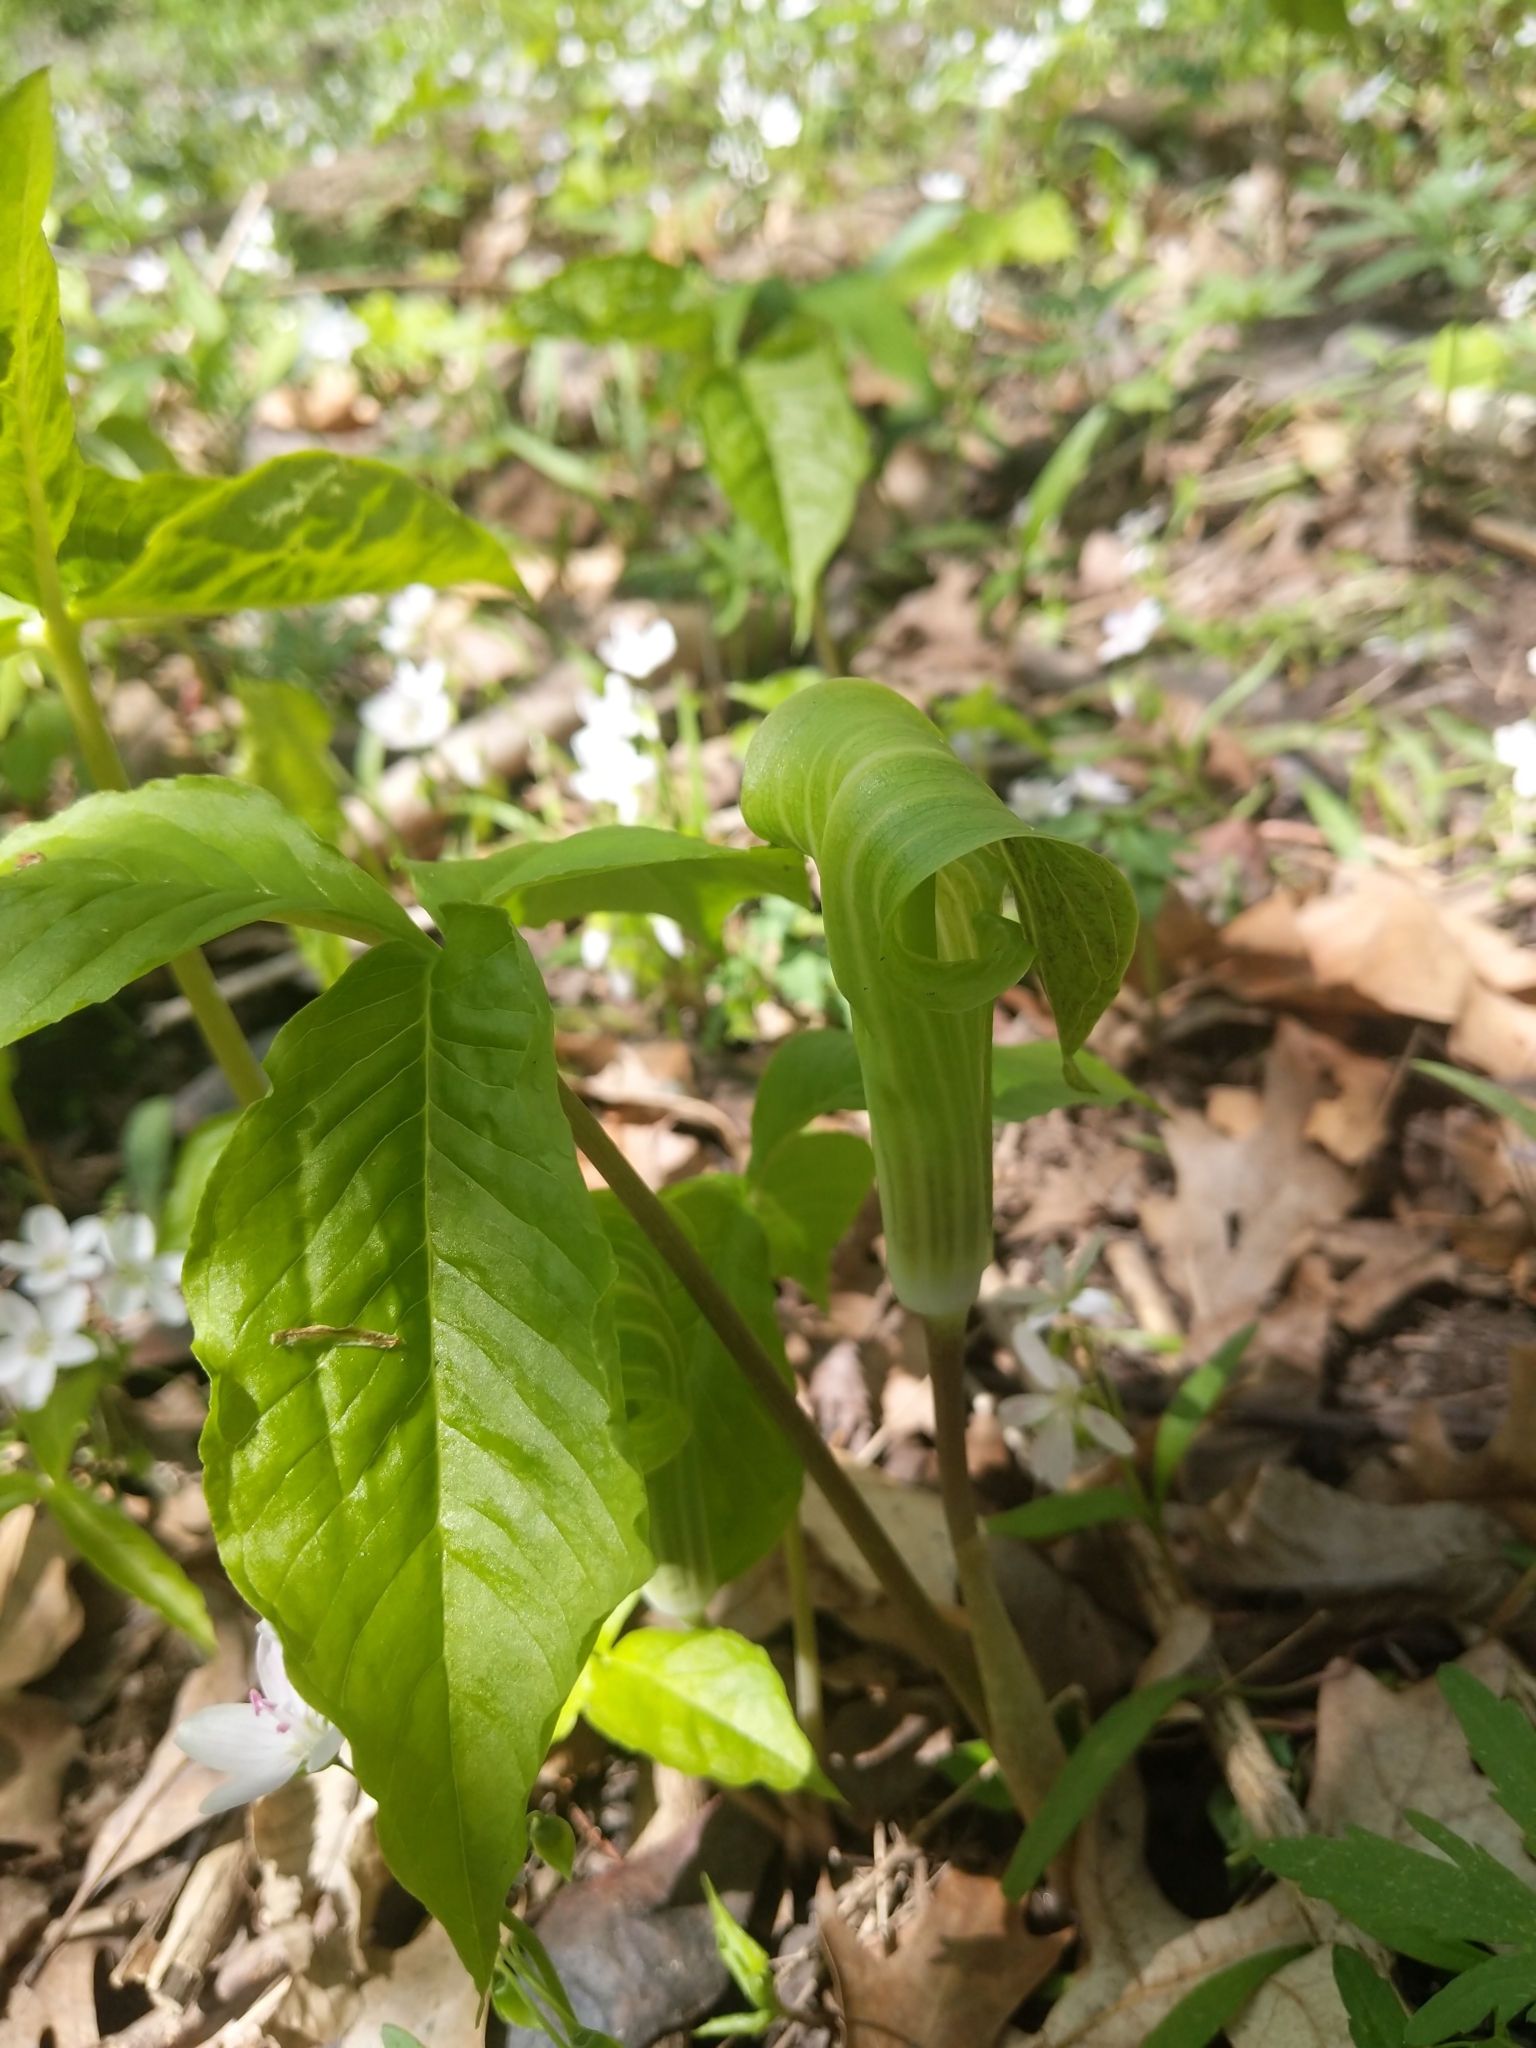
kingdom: Plantae
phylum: Tracheophyta
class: Liliopsida
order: Alismatales
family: Araceae
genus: Arisaema
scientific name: Arisaema triphyllum
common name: Jack-in-the-pulpit
